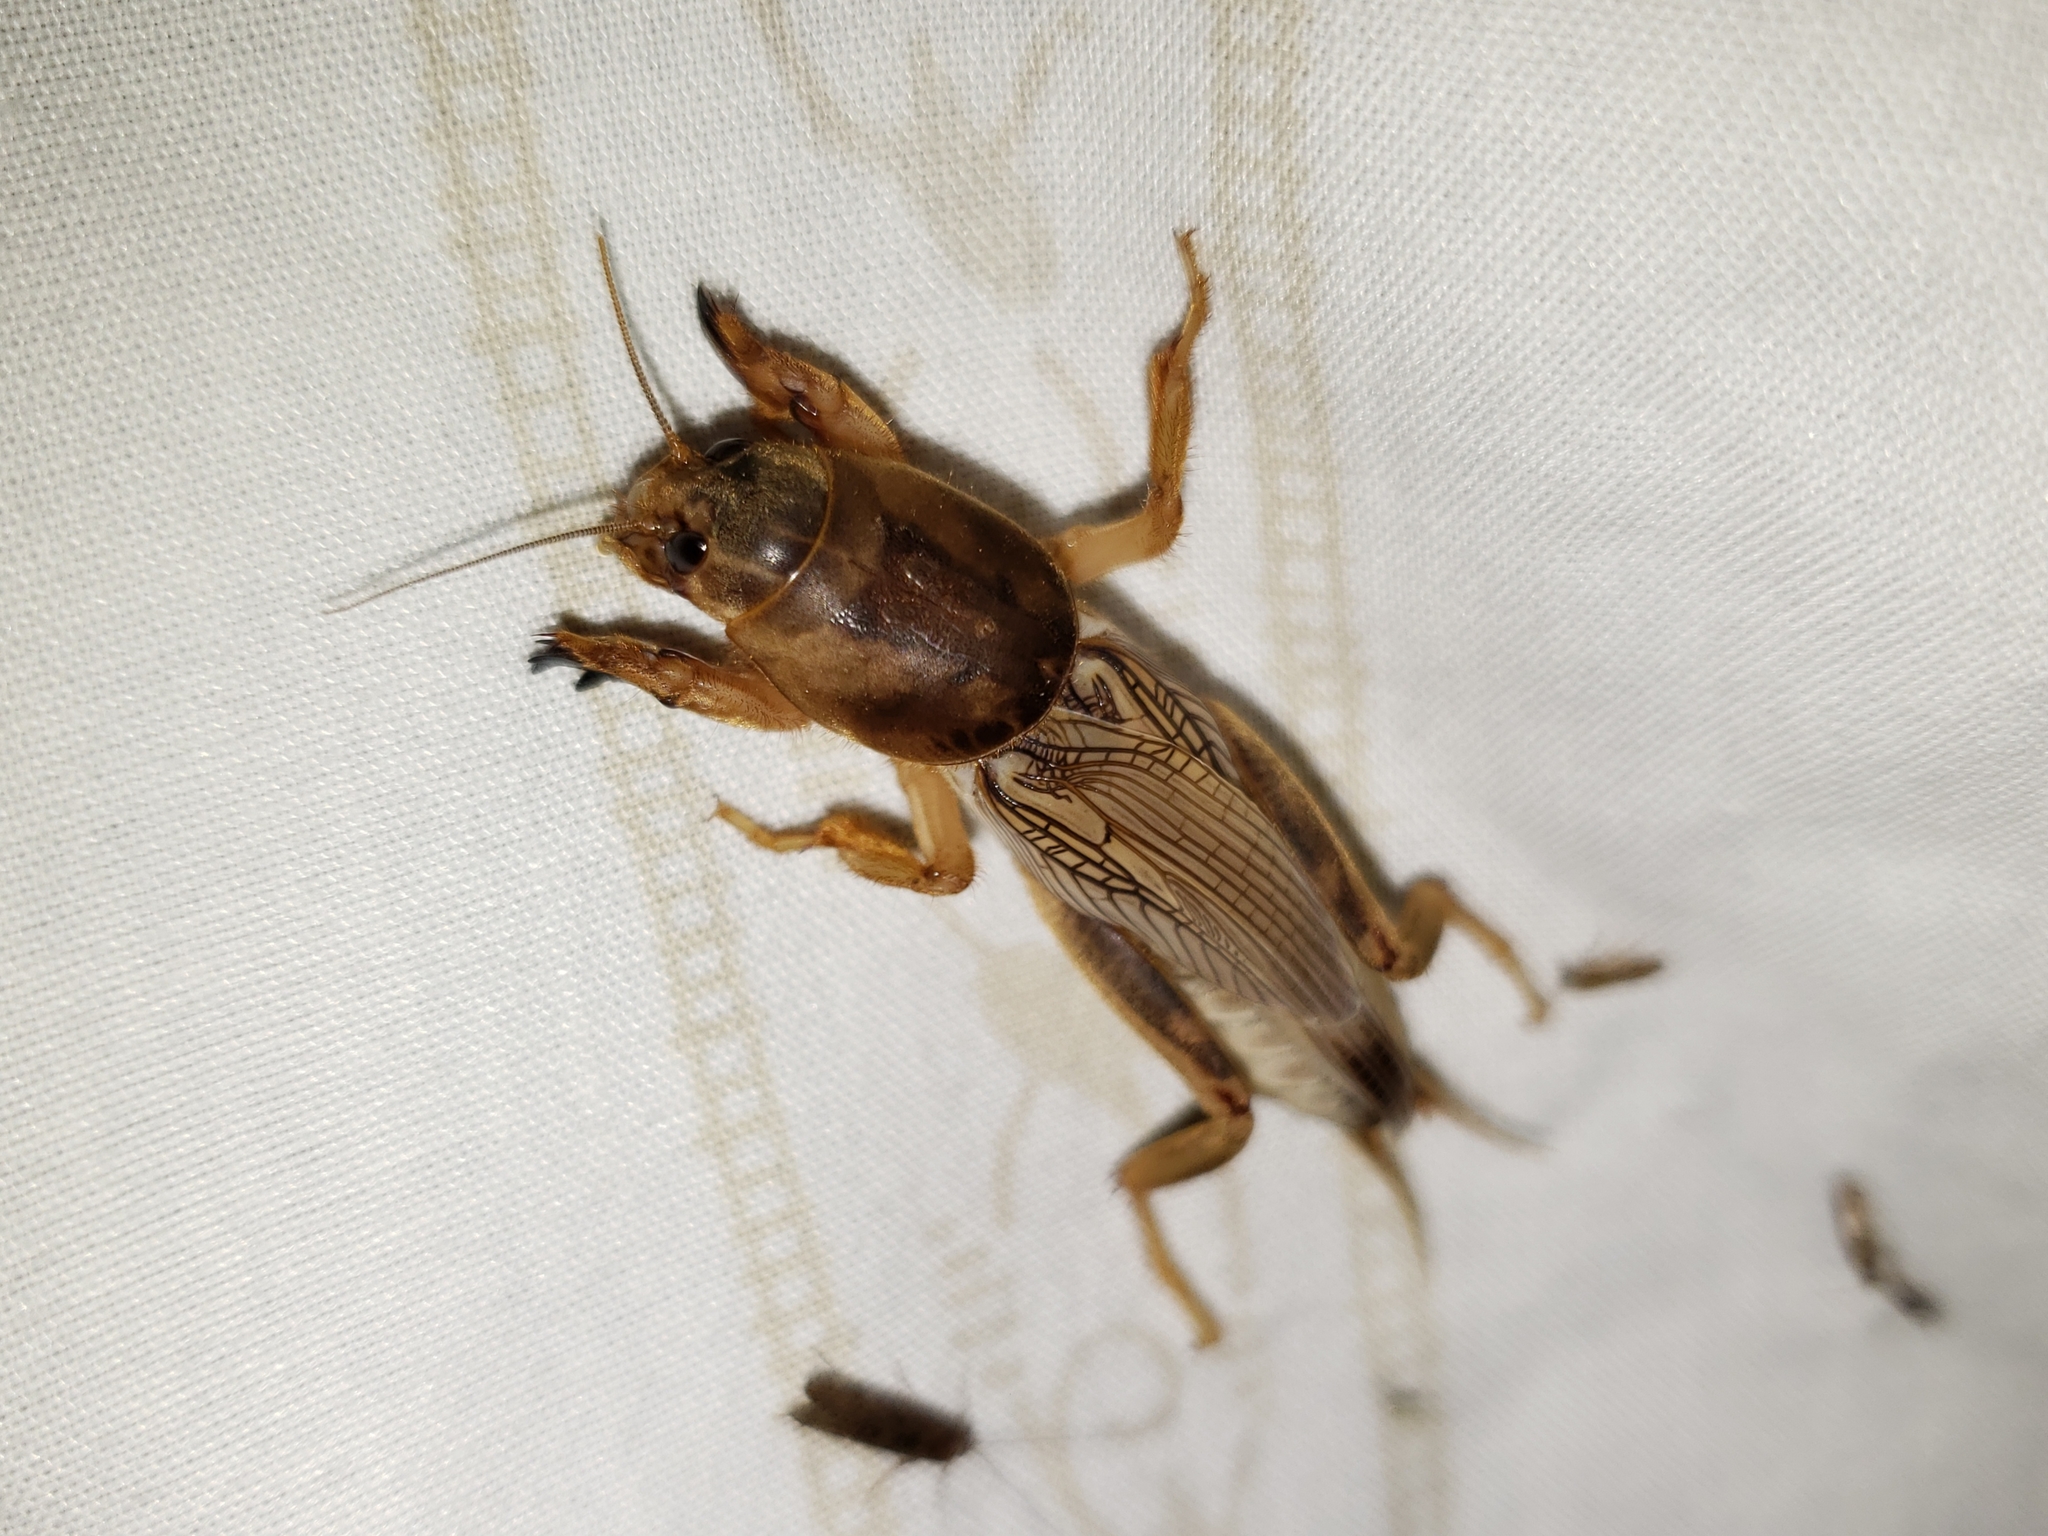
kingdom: Animalia
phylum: Arthropoda
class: Insecta
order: Orthoptera
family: Gryllotalpidae
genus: Neoscapteriscus
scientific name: Neoscapteriscus vicinus
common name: Tawny mole cricket
